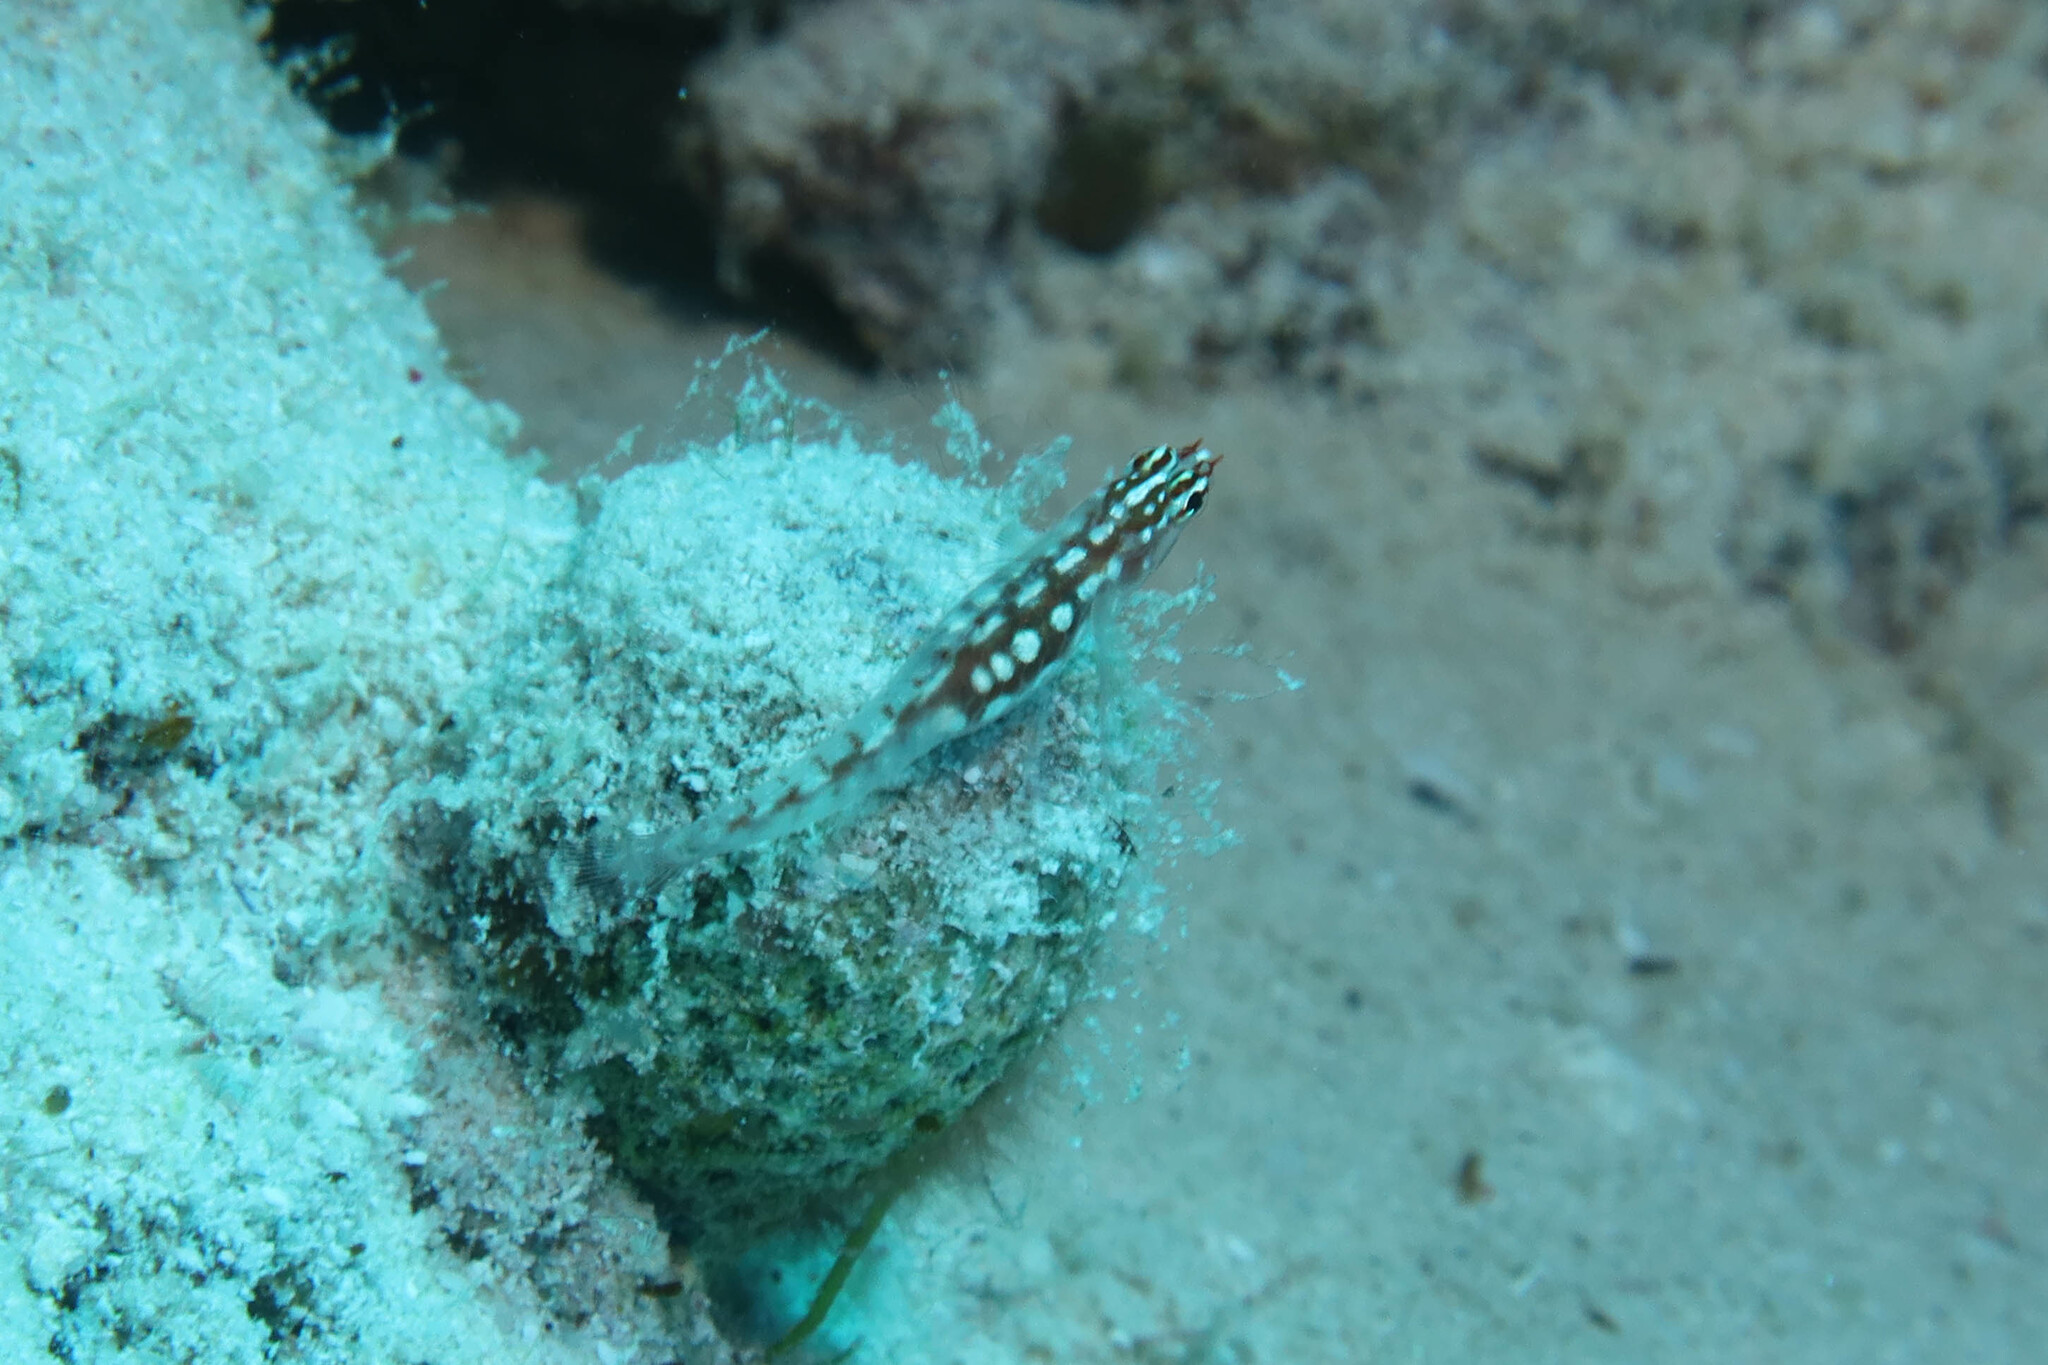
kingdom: Animalia
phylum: Chordata
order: Perciformes
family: Gobiidae
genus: Eviota
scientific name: Eviota marerubrum
